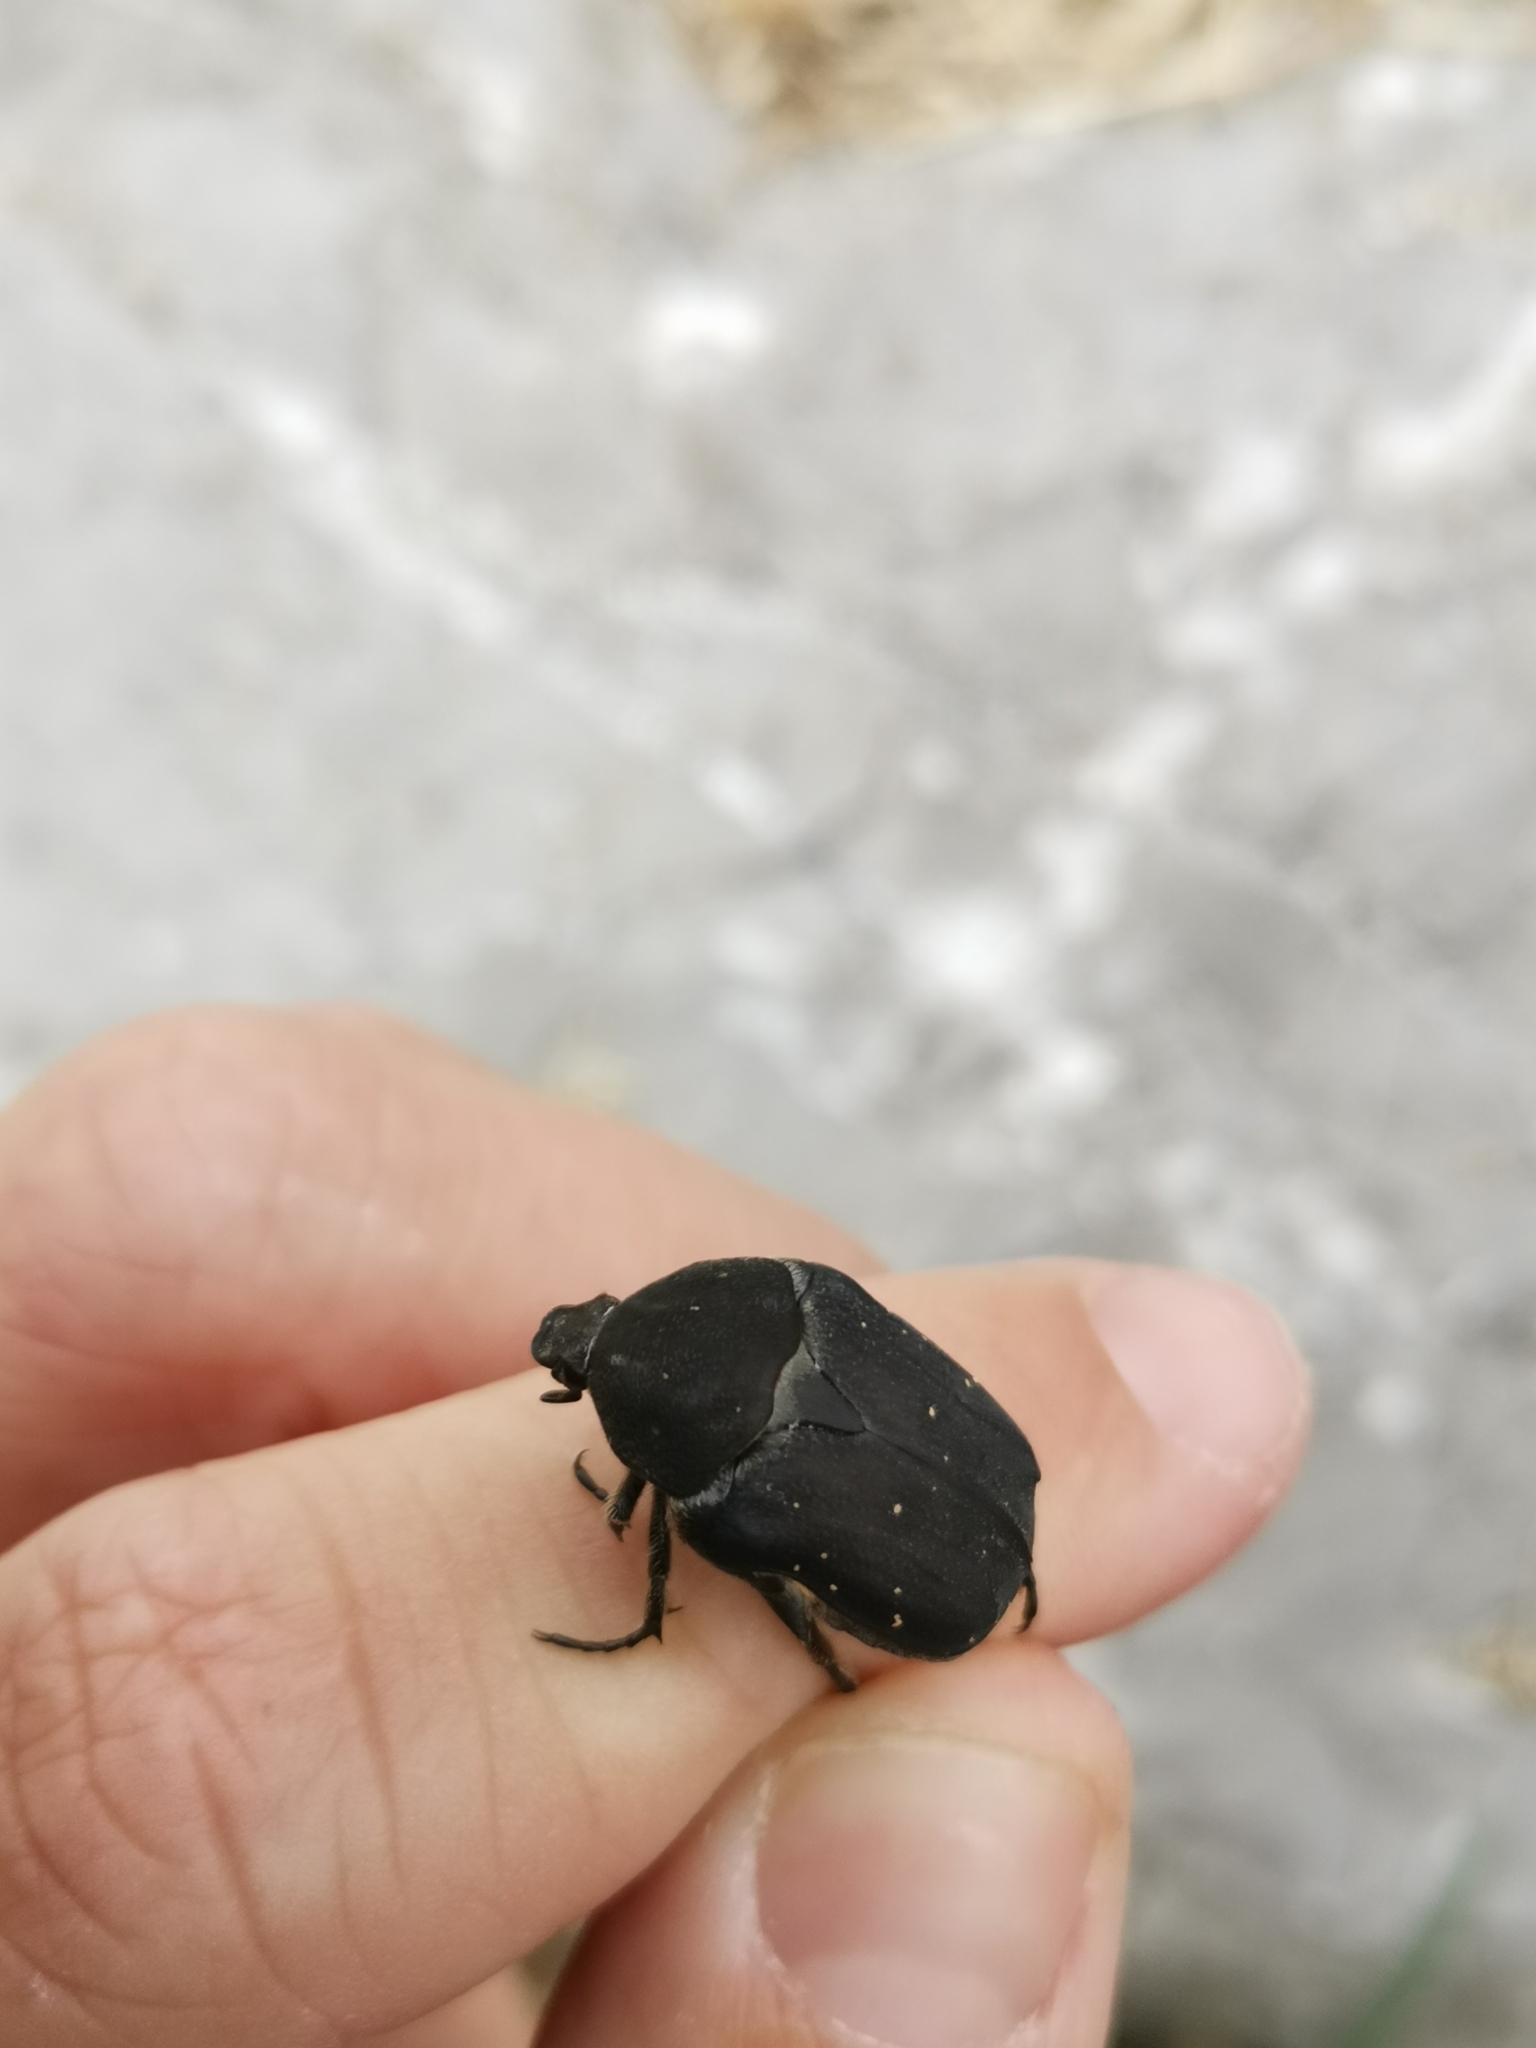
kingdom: Animalia
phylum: Arthropoda
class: Insecta
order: Coleoptera
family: Scarabaeidae
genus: Protaetia
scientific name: Protaetia morio
